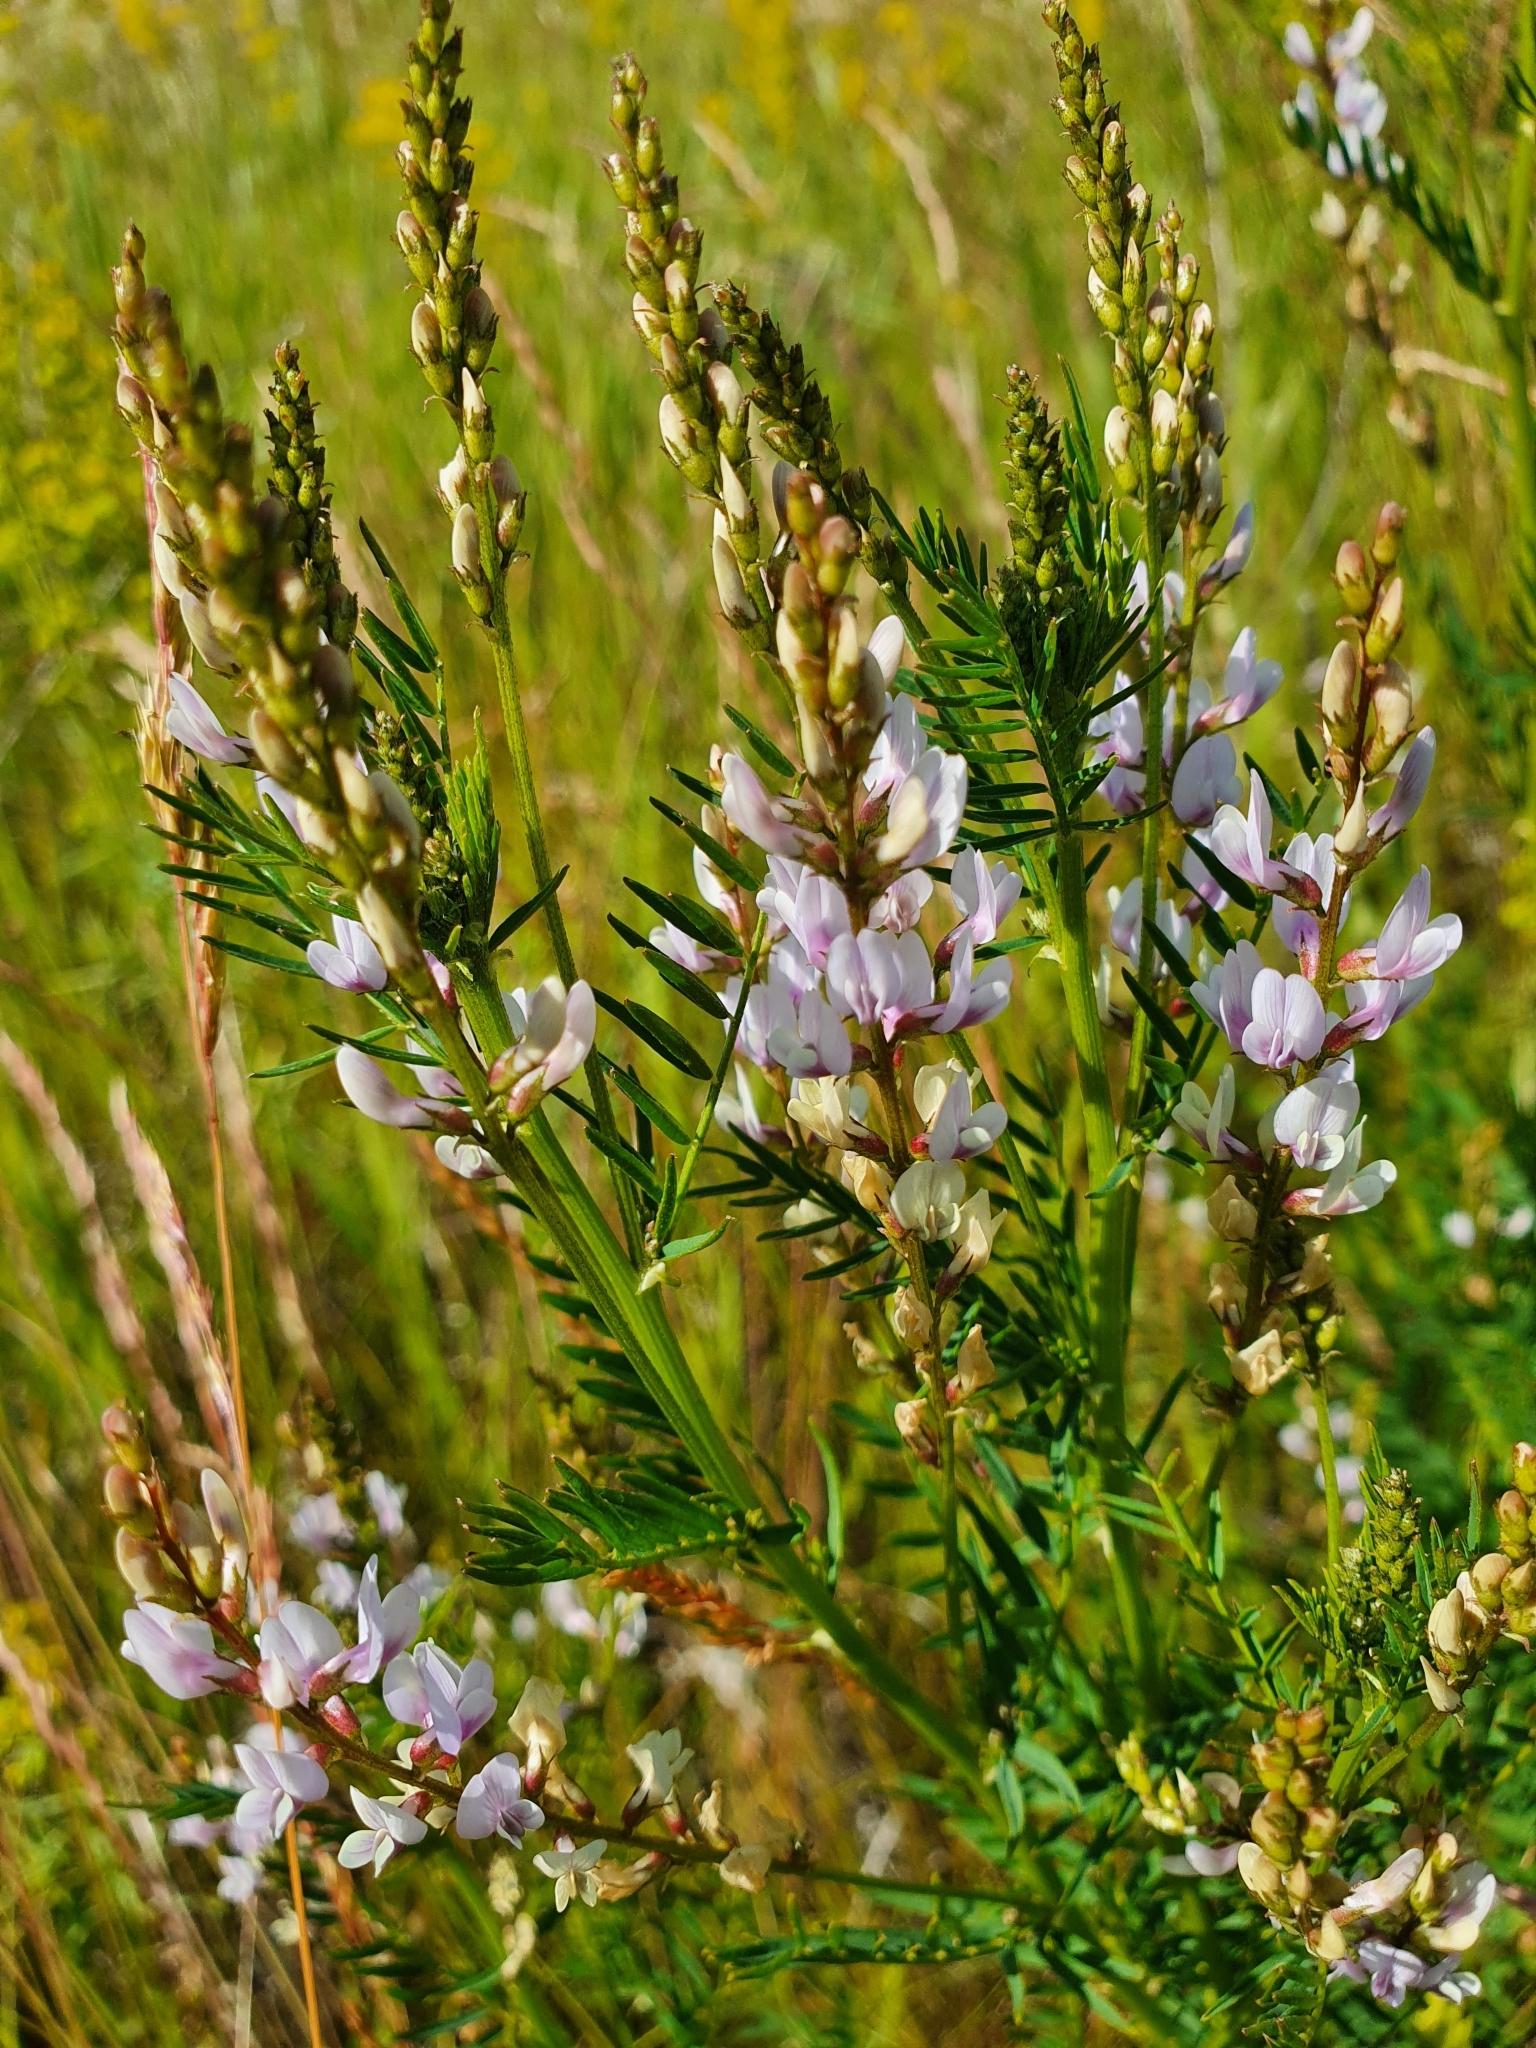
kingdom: Plantae
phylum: Tracheophyta
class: Magnoliopsida
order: Fabales
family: Fabaceae
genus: Astragalus
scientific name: Astragalus sulcatus
